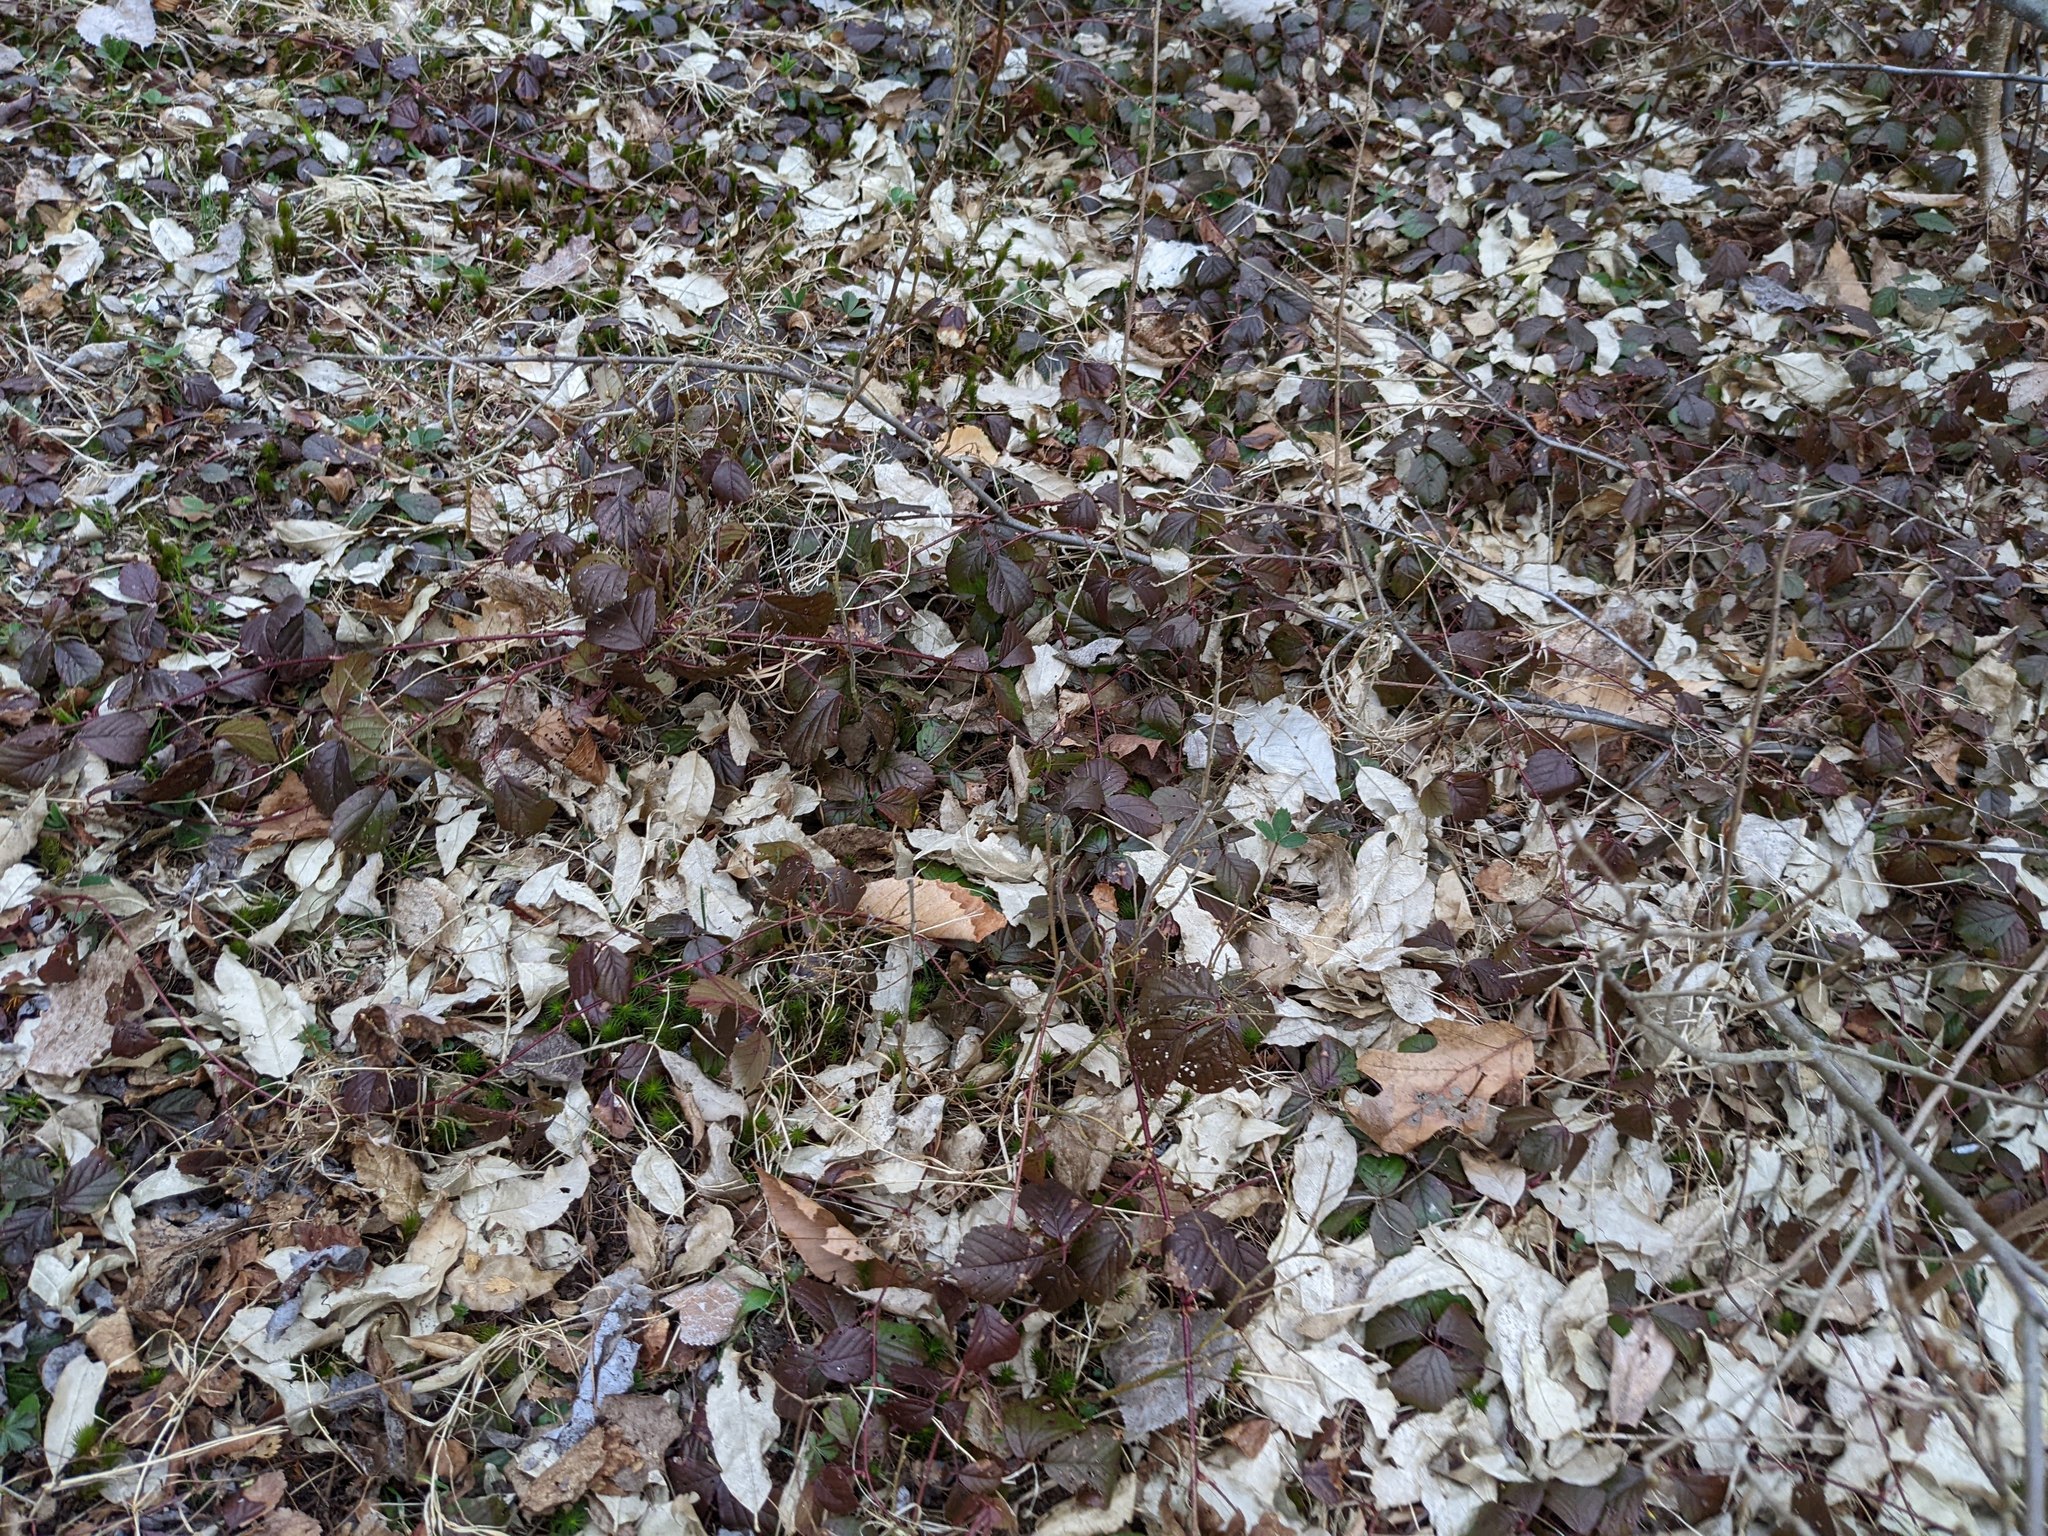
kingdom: Plantae
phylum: Tracheophyta
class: Magnoliopsida
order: Rosales
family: Rosaceae
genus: Rubus
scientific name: Rubus hispidus
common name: Running blackberry
